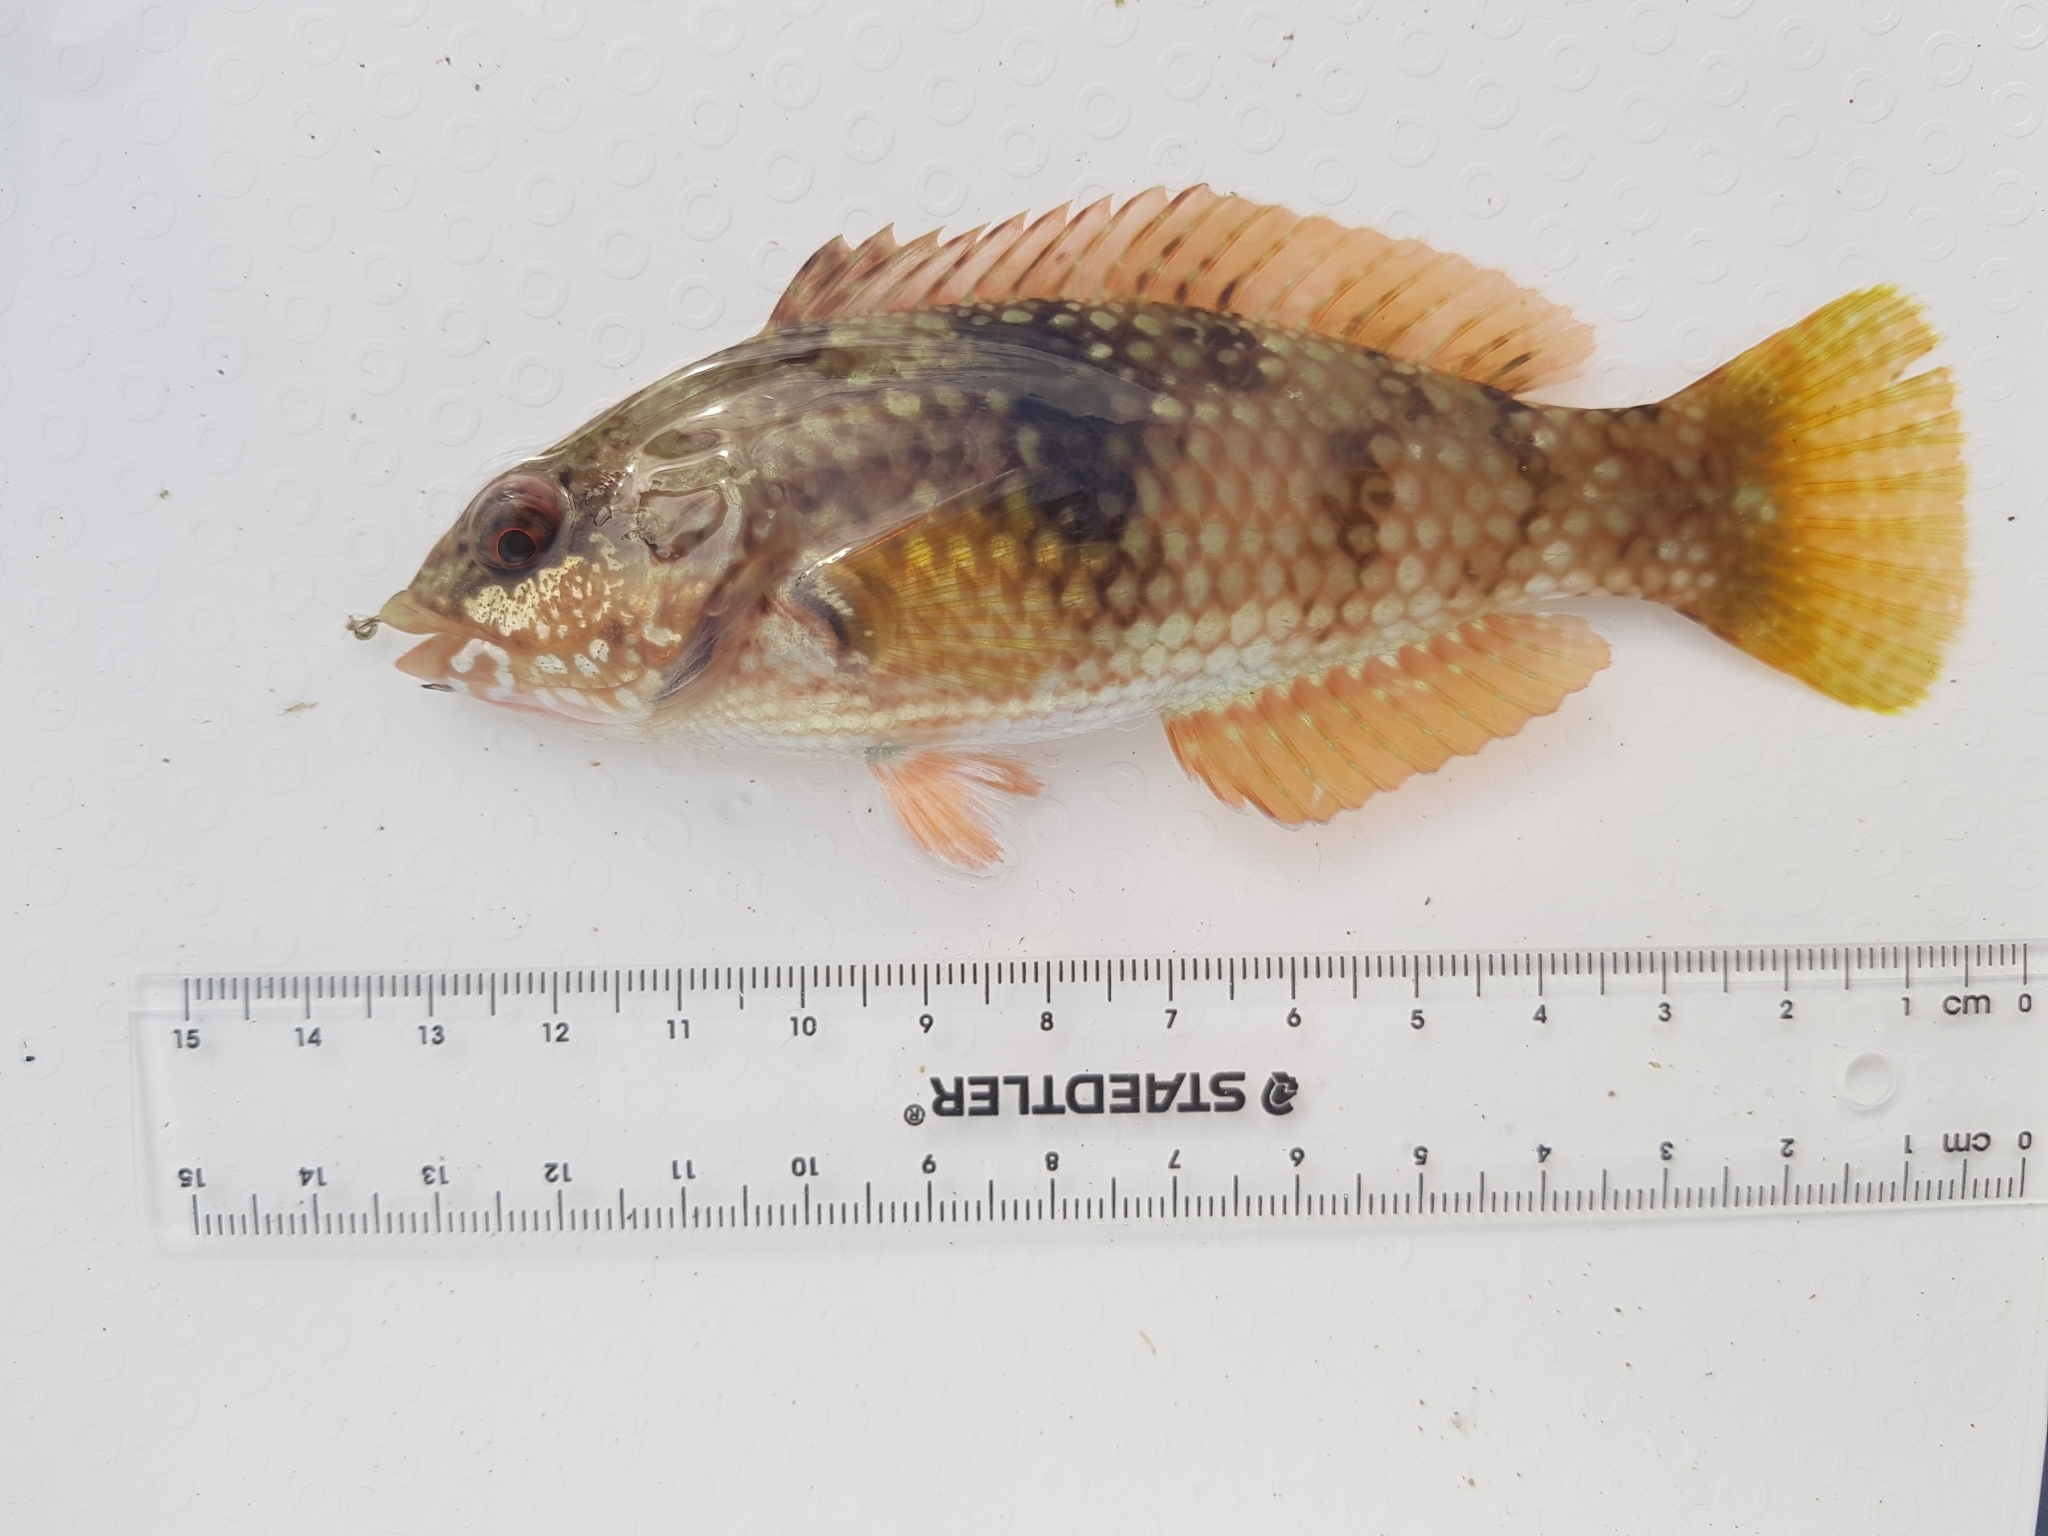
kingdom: Animalia
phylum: Chordata
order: Perciformes
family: Labridae
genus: Notolabrus
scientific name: Notolabrus tetricus
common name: Blue-throated parrotfish
